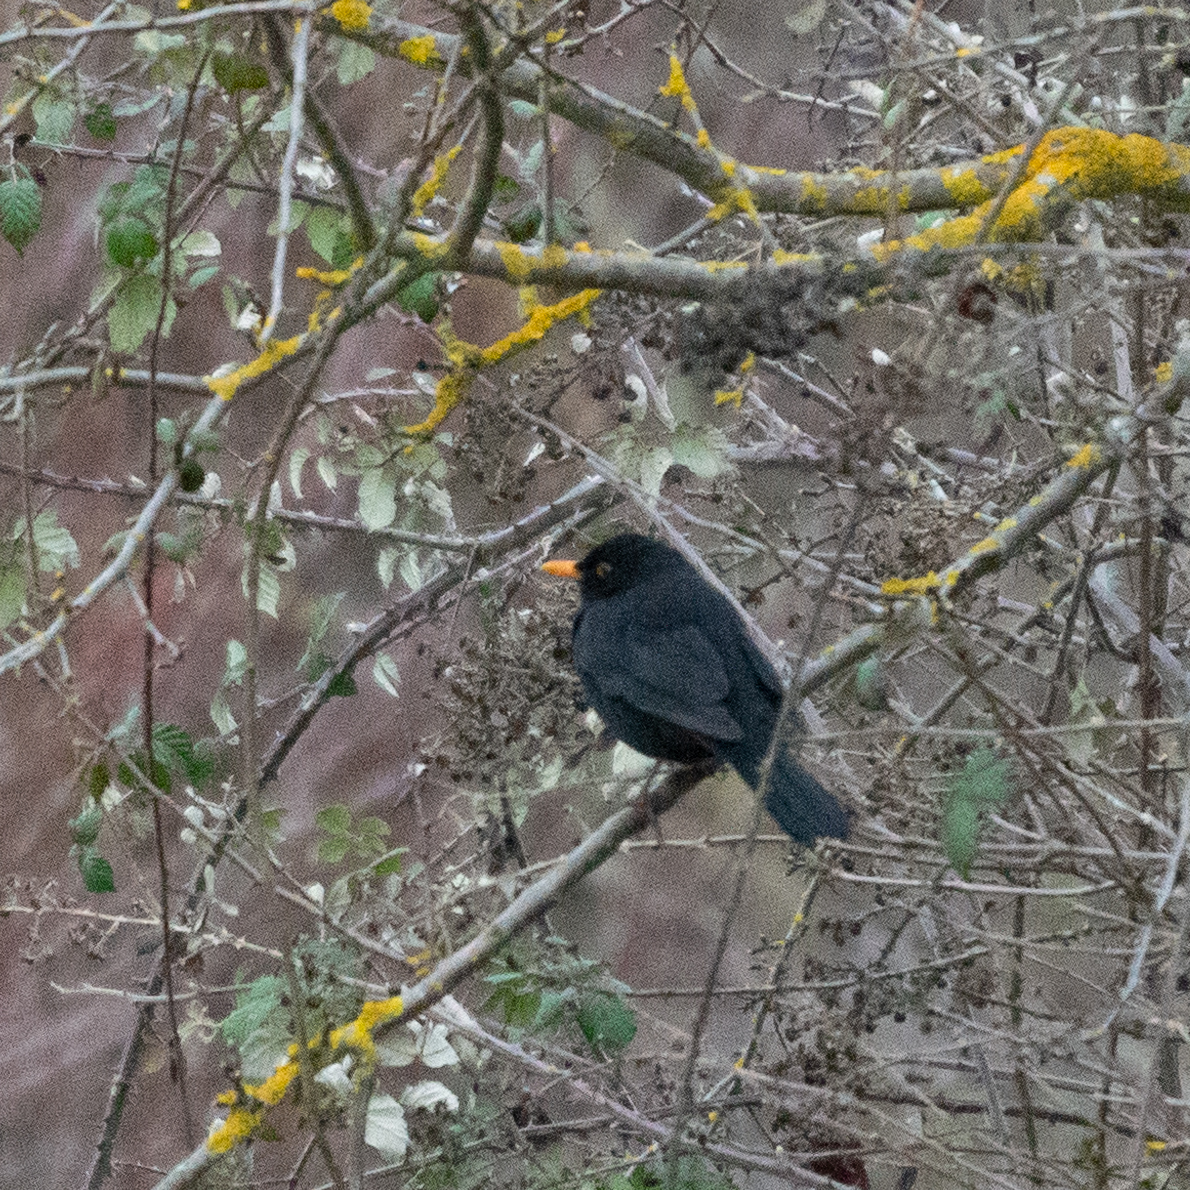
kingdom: Animalia
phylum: Chordata
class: Aves
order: Passeriformes
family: Turdidae
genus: Turdus
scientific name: Turdus merula
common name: Common blackbird
